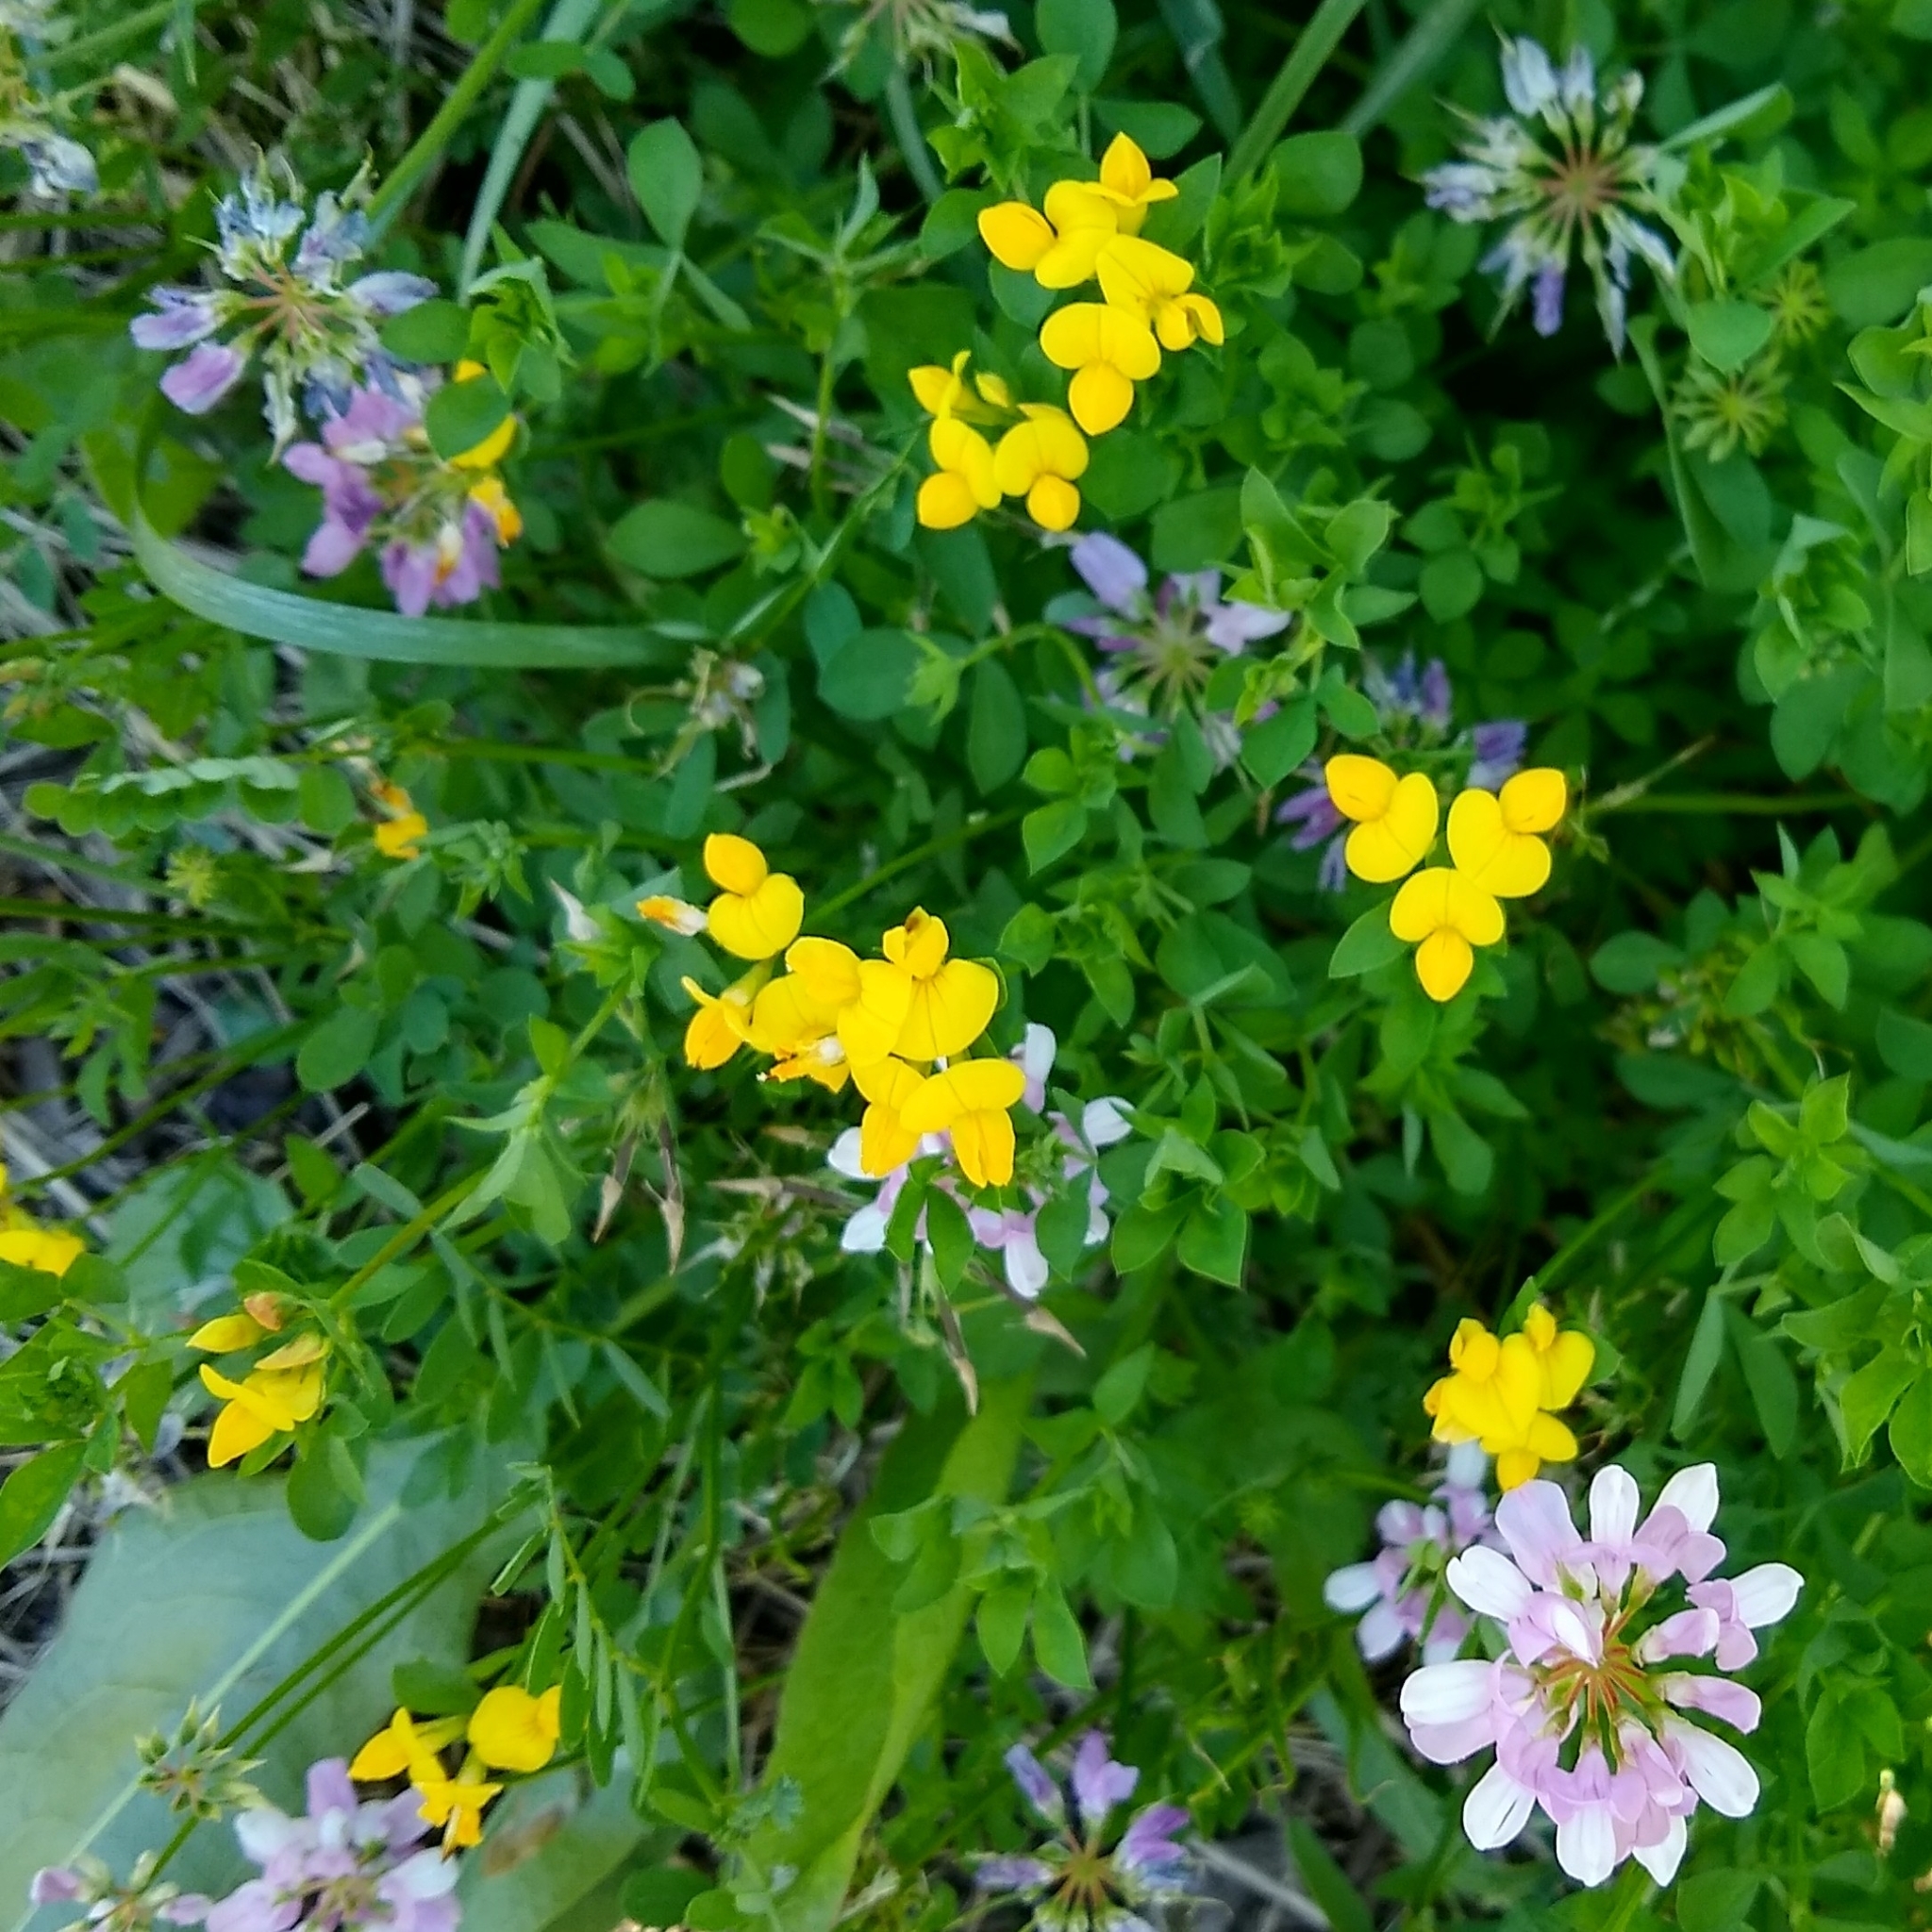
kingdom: Plantae
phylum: Tracheophyta
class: Magnoliopsida
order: Fabales
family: Fabaceae
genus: Lotus
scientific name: Lotus corniculatus
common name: Common bird's-foot-trefoil
